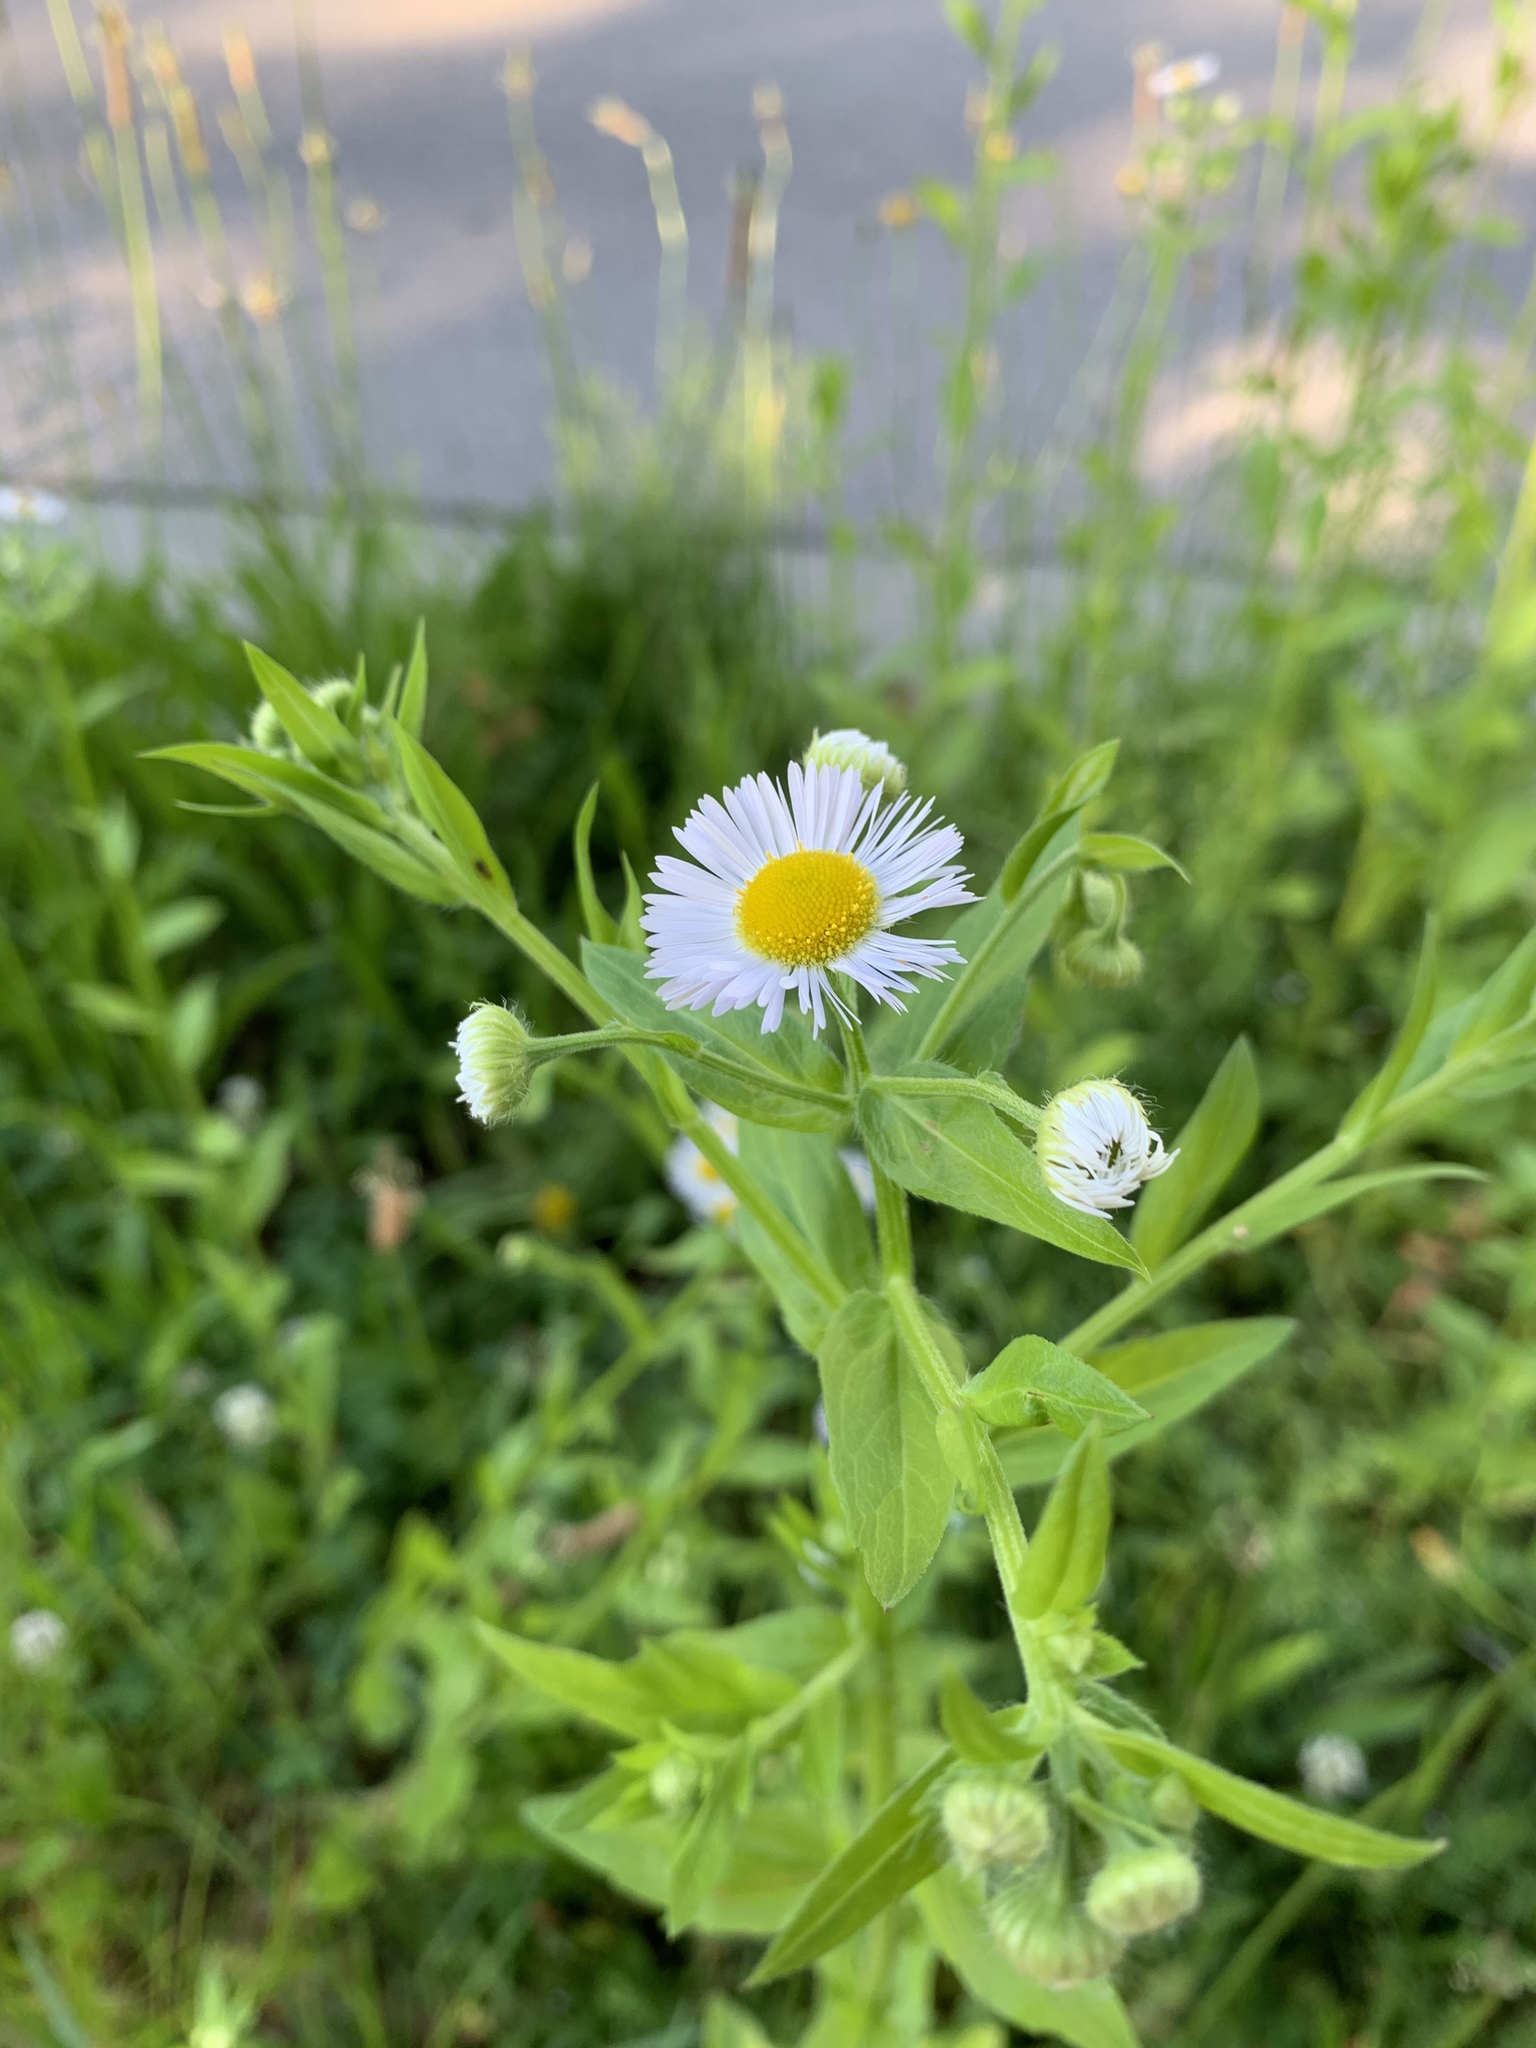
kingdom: Plantae
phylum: Tracheophyta
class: Magnoliopsida
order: Asterales
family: Asteraceae
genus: Erigeron
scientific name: Erigeron annuus
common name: Tall fleabane
